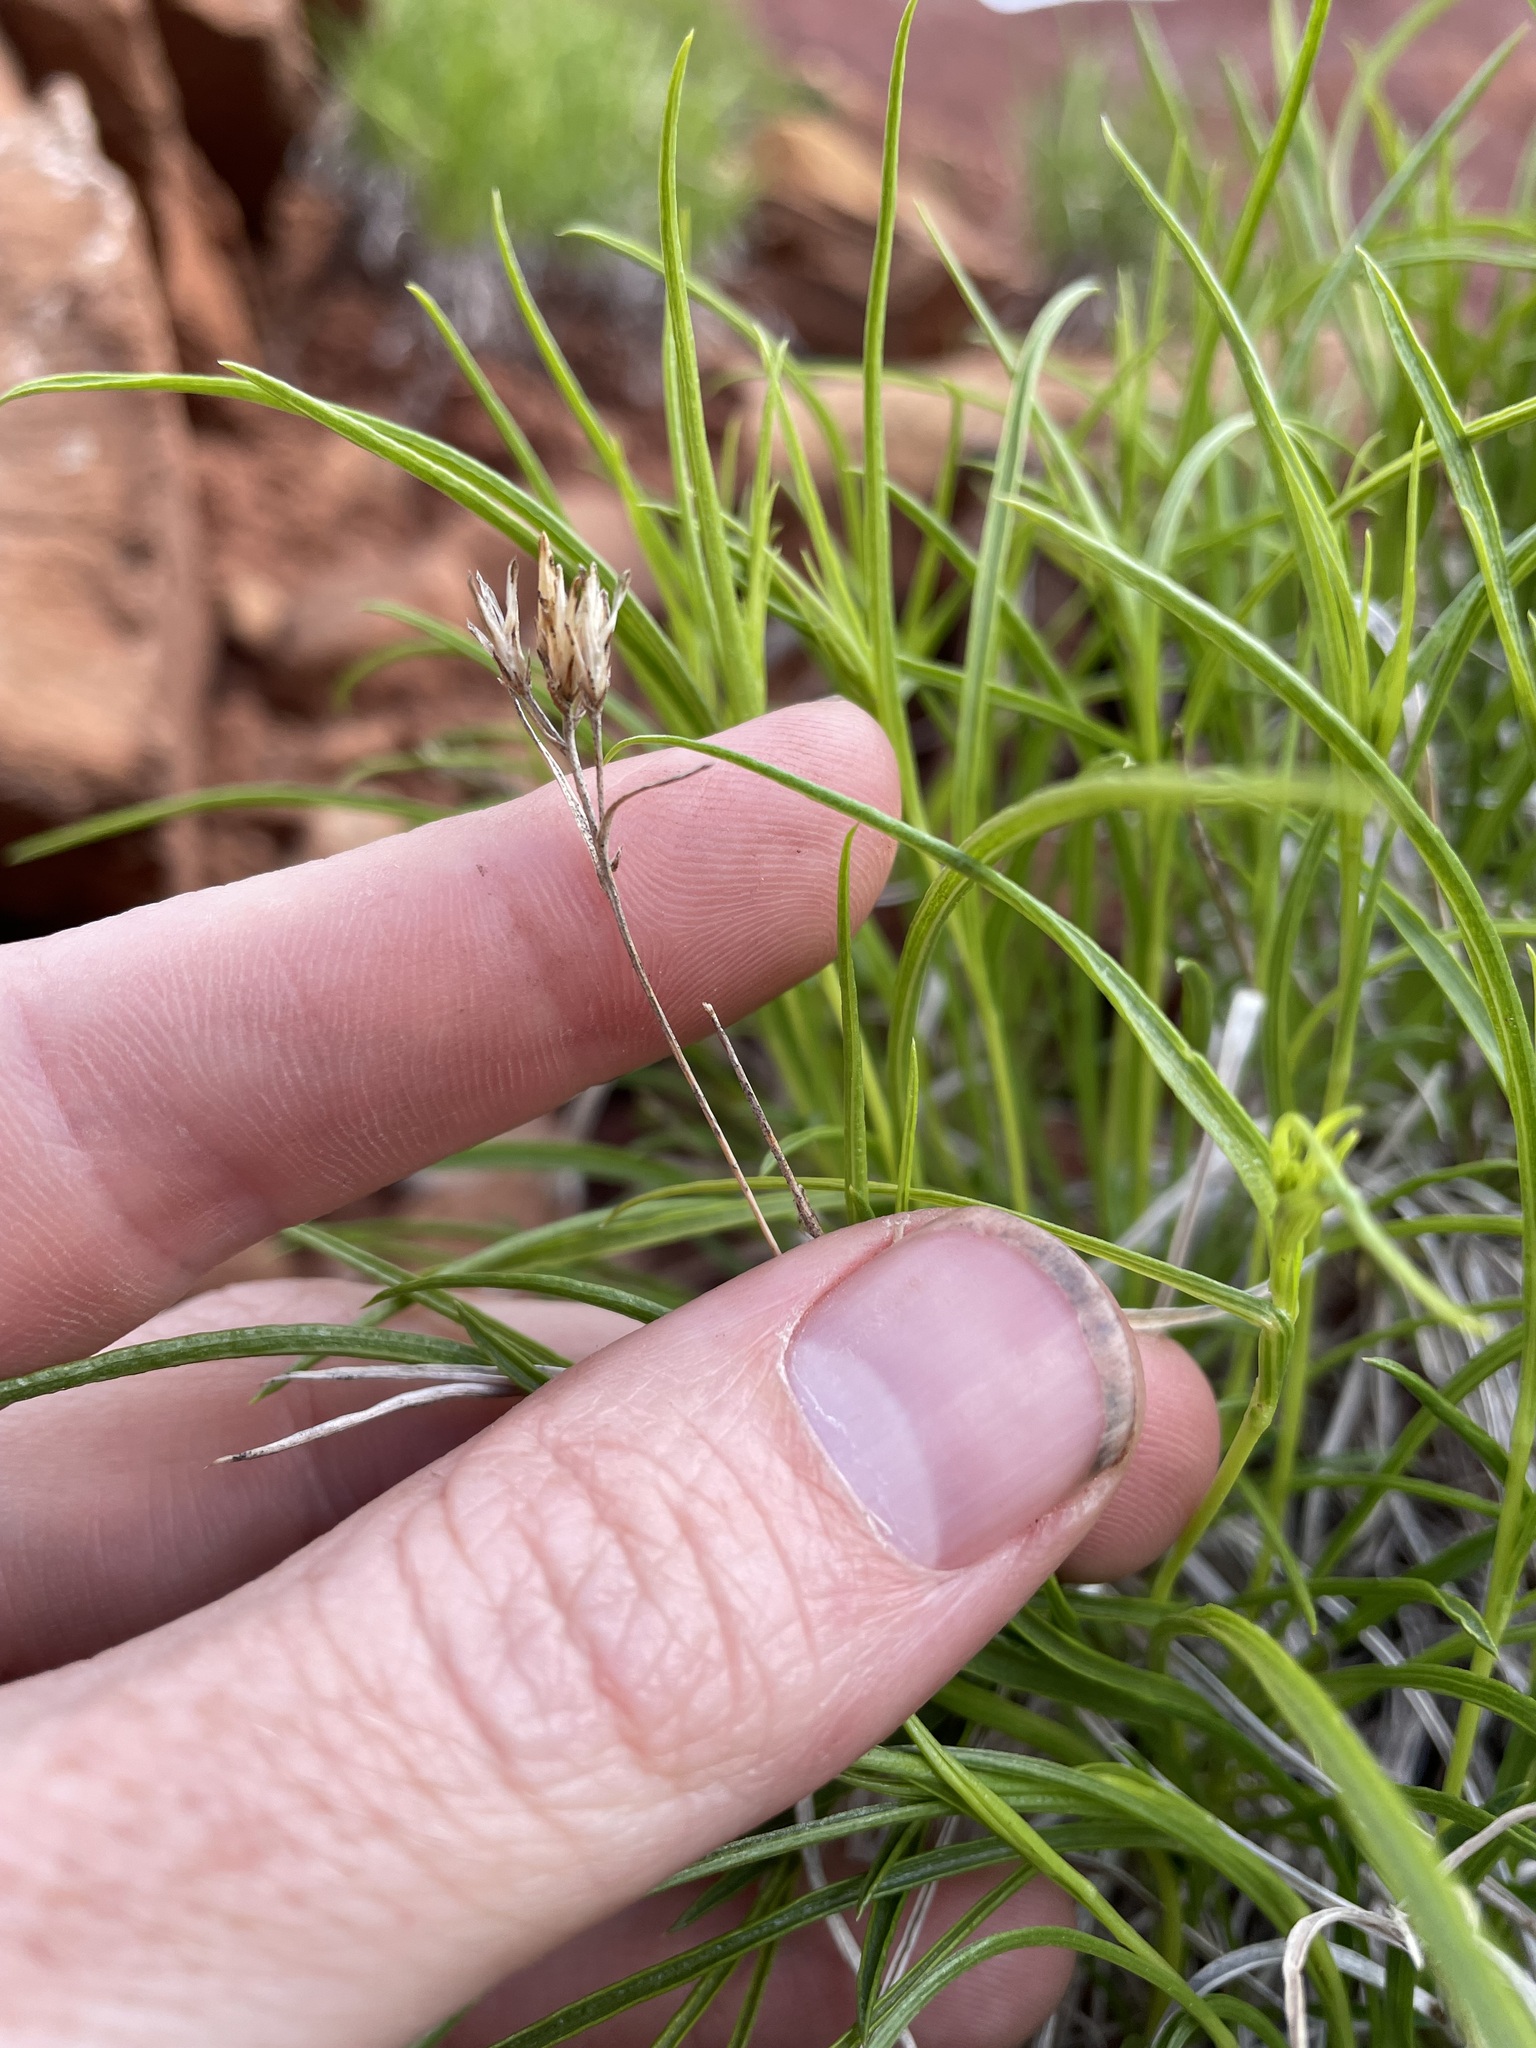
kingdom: Plantae
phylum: Tracheophyta
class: Magnoliopsida
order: Asterales
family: Asteraceae
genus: Petradoria
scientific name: Petradoria pumila
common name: Rock-goldenrod
